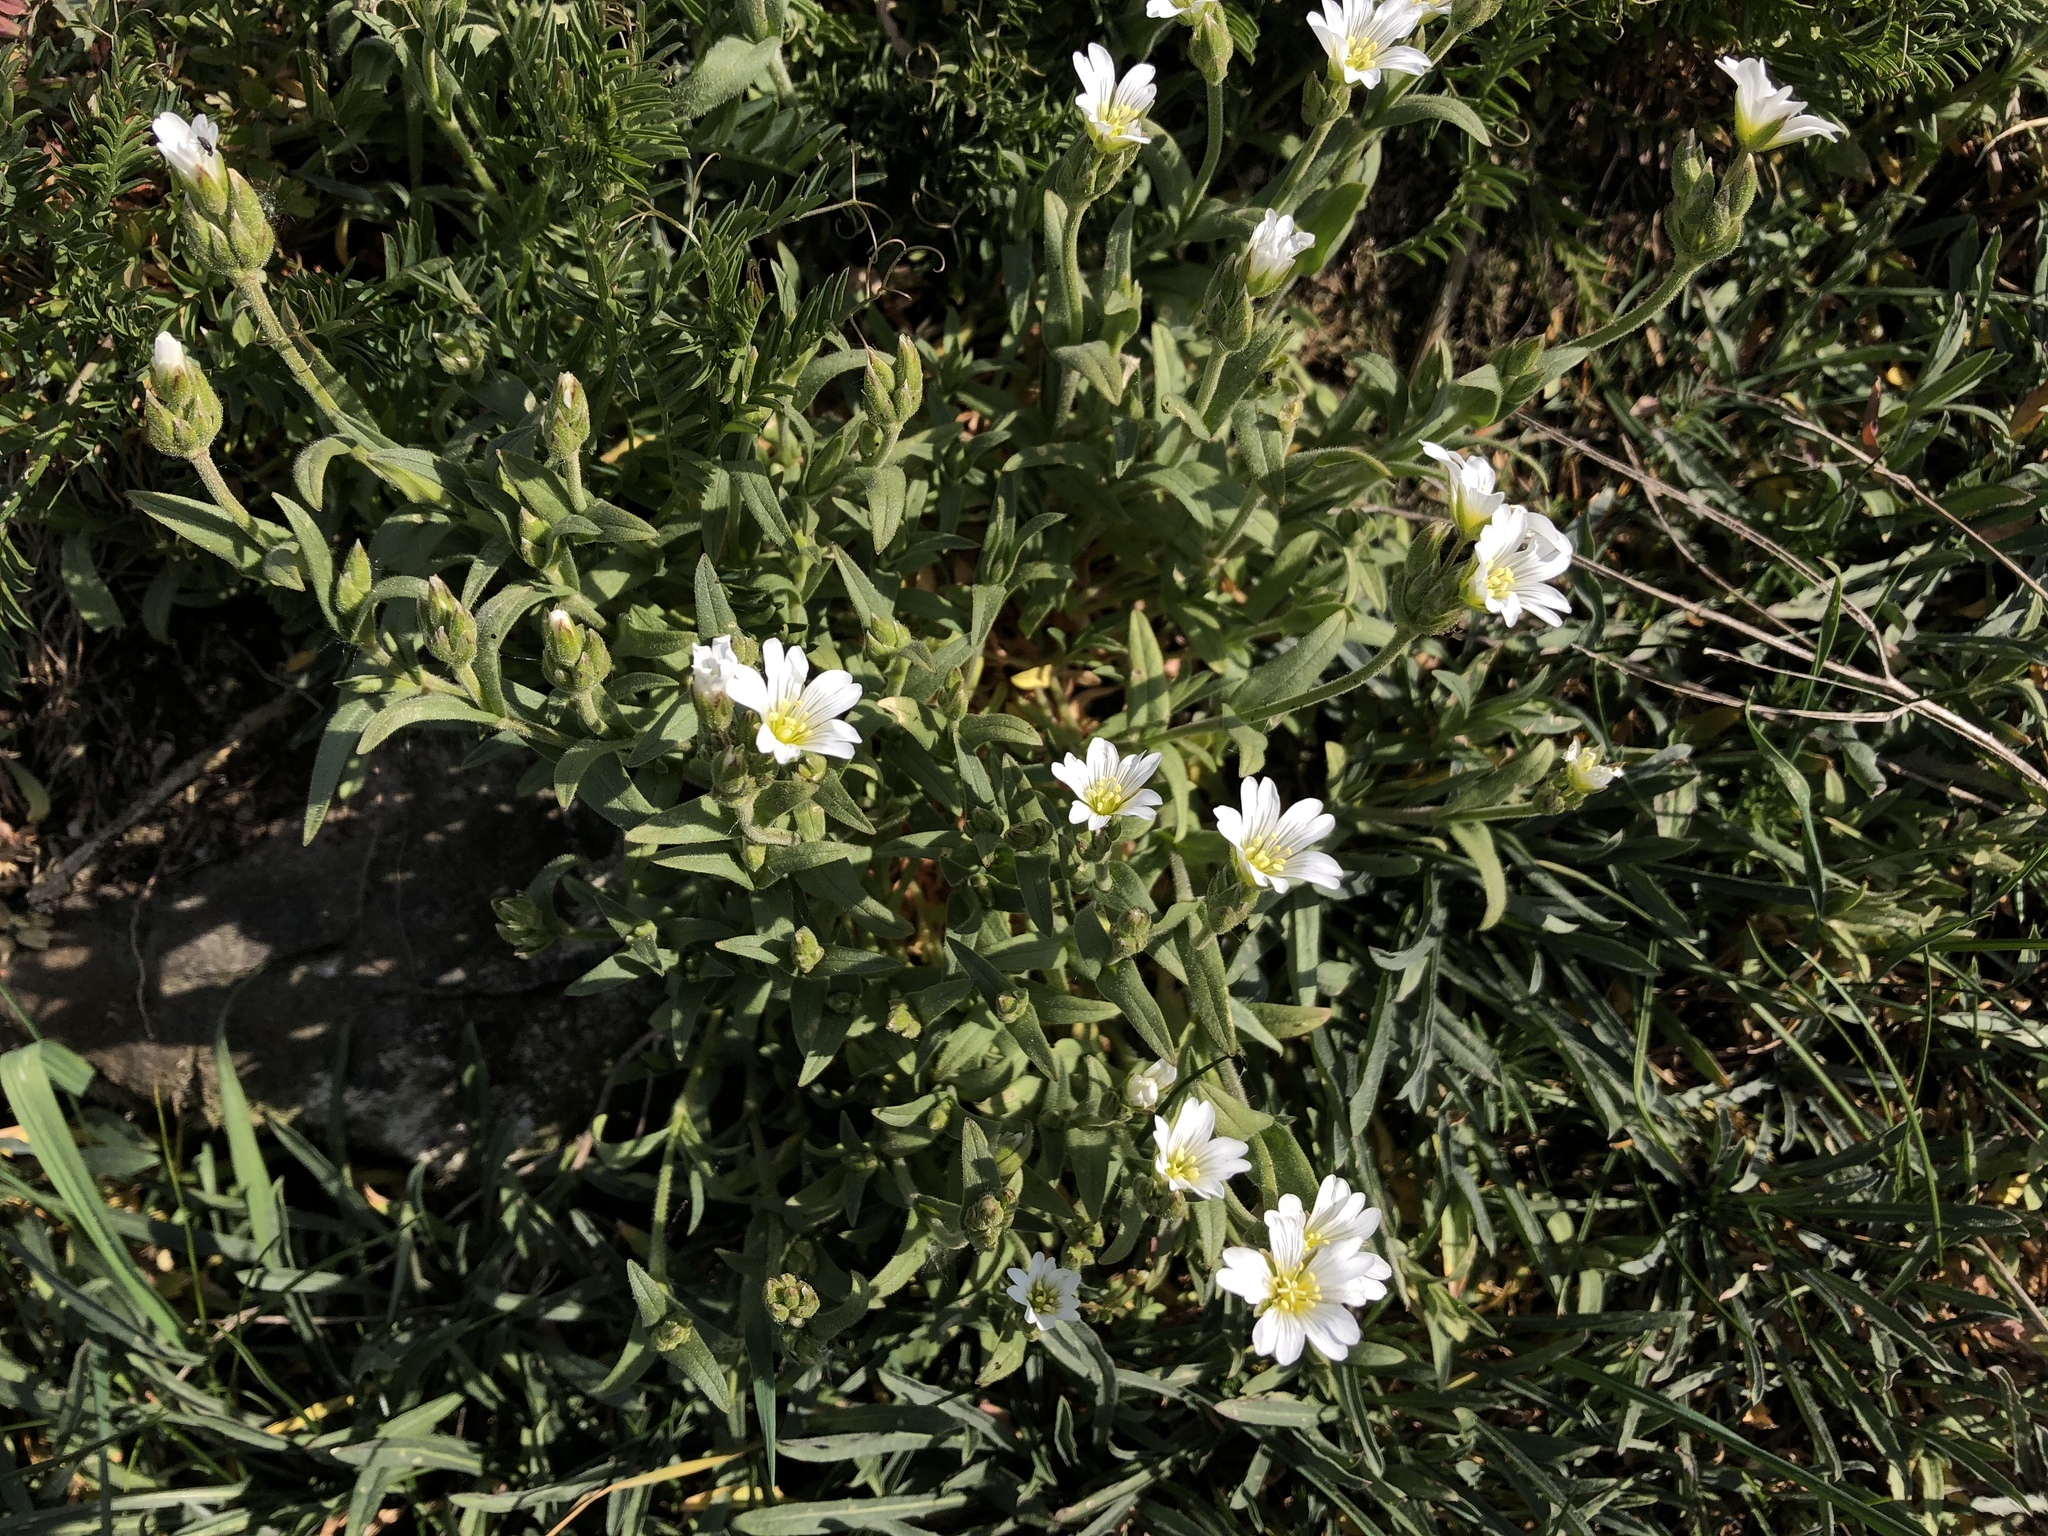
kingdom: Plantae
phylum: Tracheophyta
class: Magnoliopsida
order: Caryophyllales
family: Caryophyllaceae
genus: Cerastium
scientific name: Cerastium arvense
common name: Field mouse-ear
